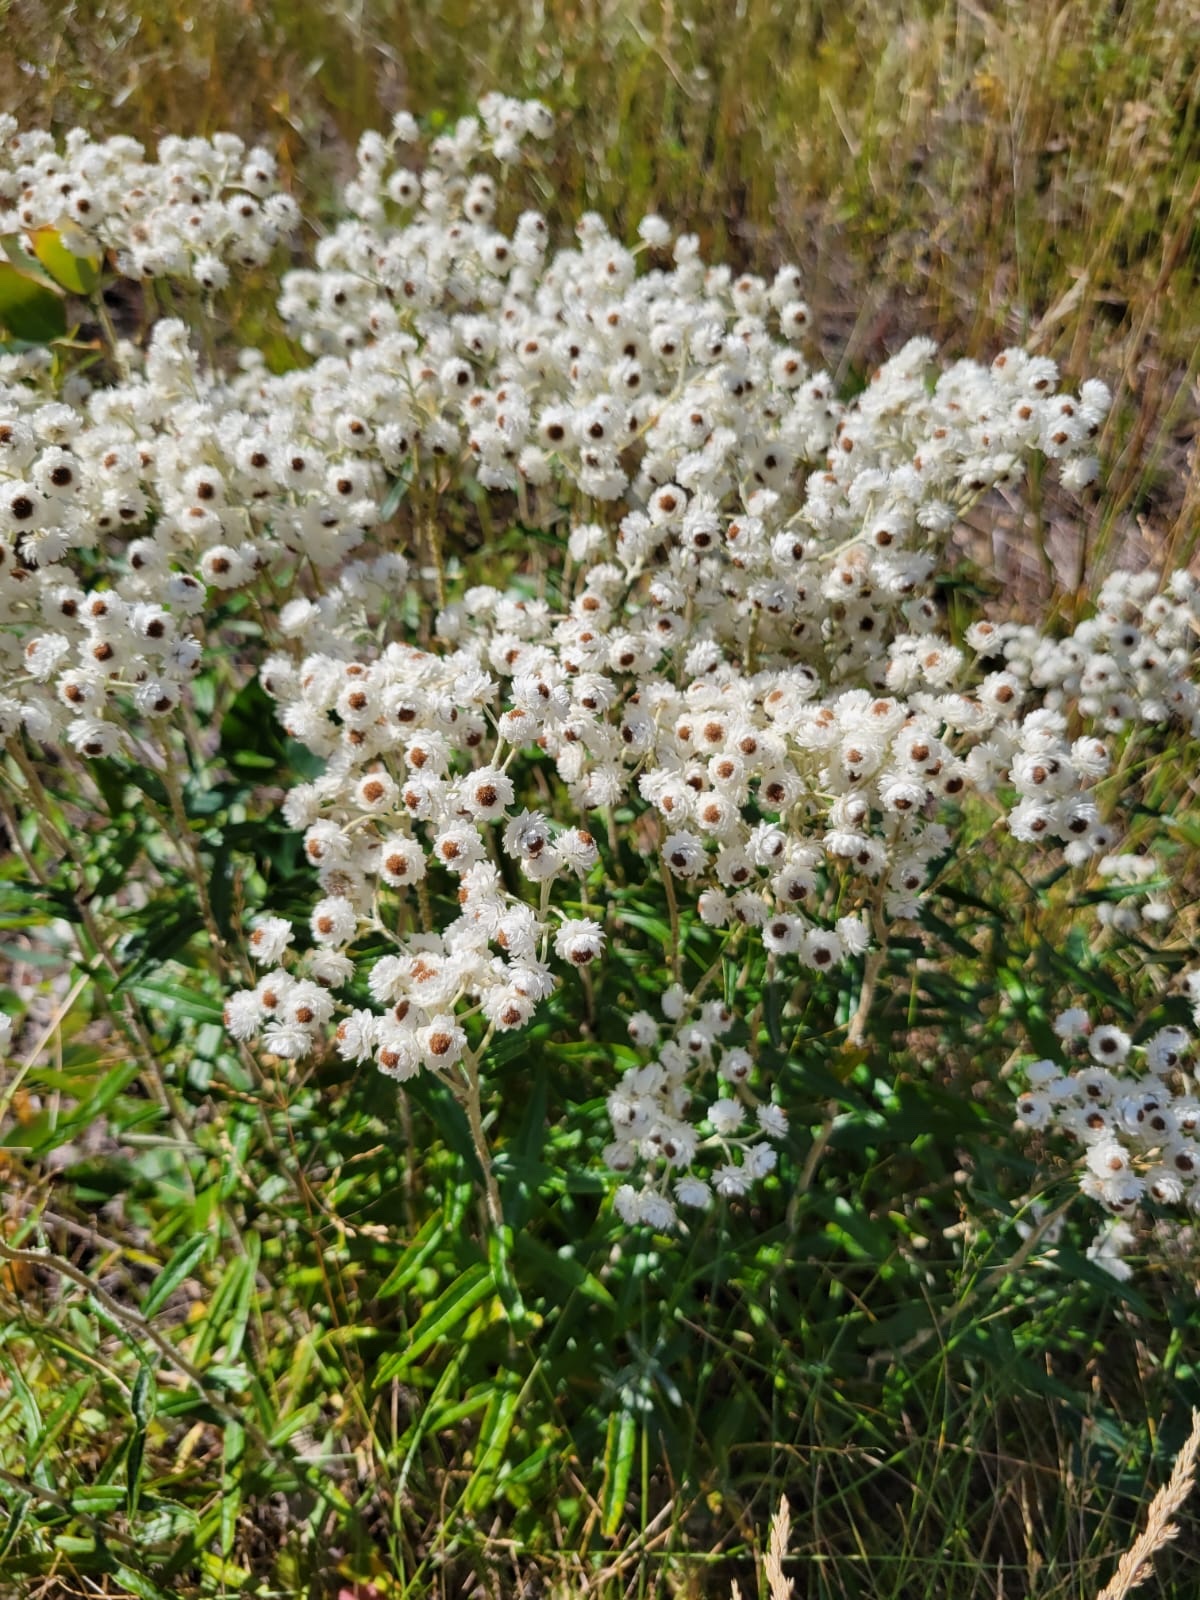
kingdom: Plantae
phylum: Tracheophyta
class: Magnoliopsida
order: Asterales
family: Asteraceae
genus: Anaphalis
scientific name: Anaphalis margaritacea
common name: Pearly everlasting
